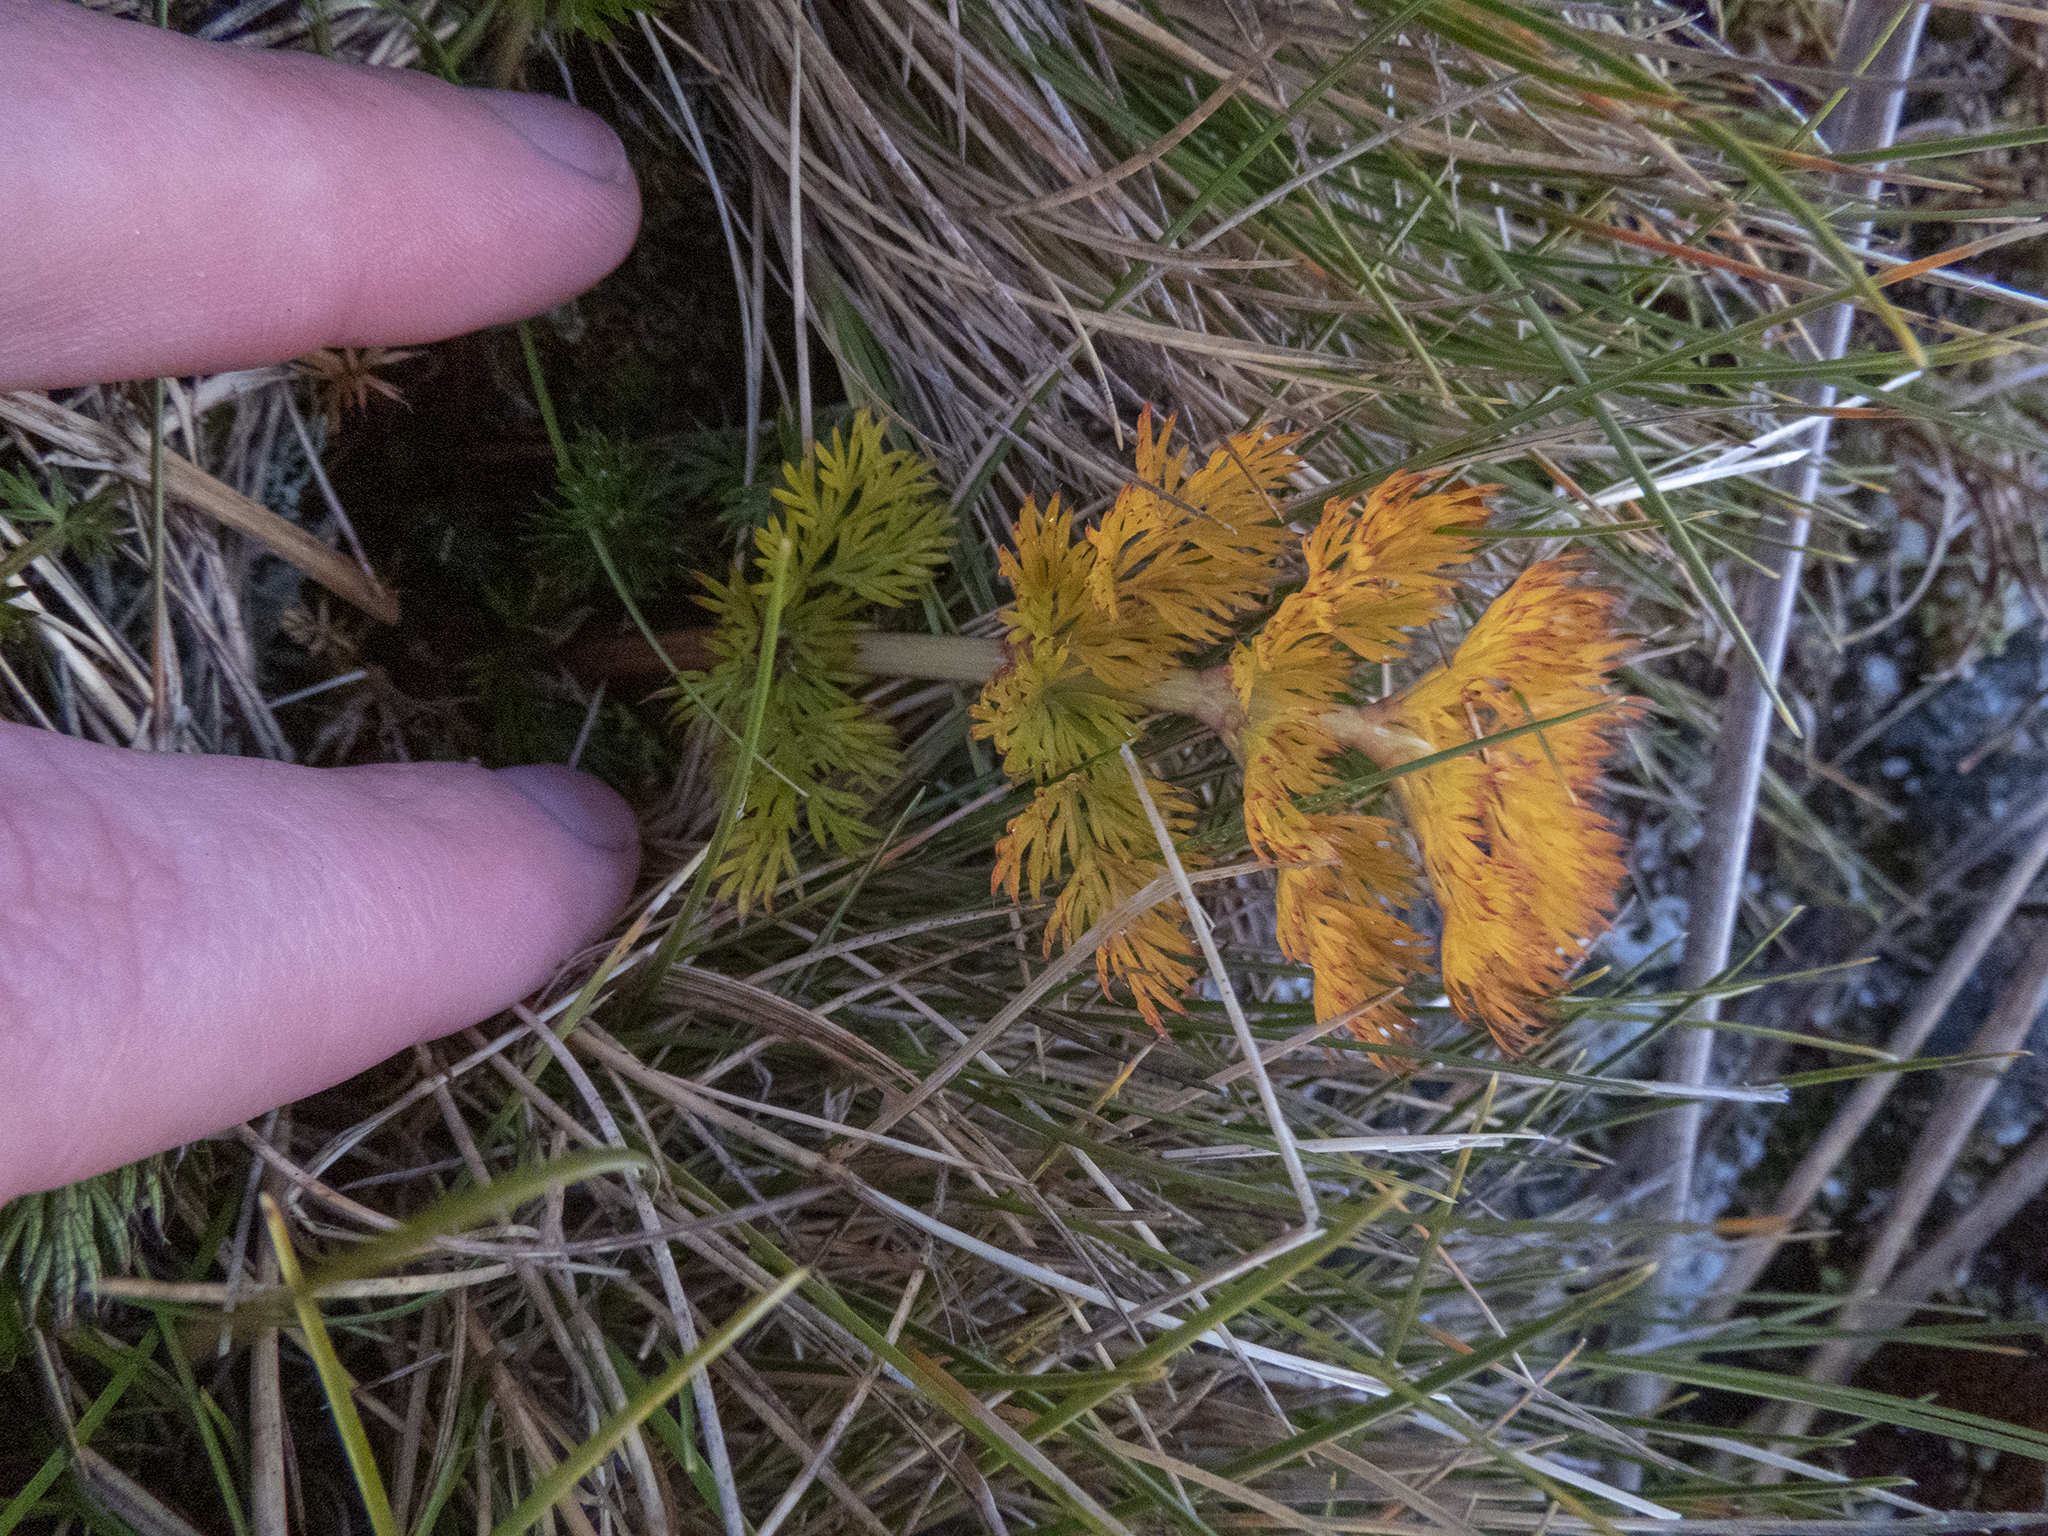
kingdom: Plantae
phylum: Tracheophyta
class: Magnoliopsida
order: Apiales
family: Apiaceae
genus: Anisotome
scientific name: Anisotome haastii
